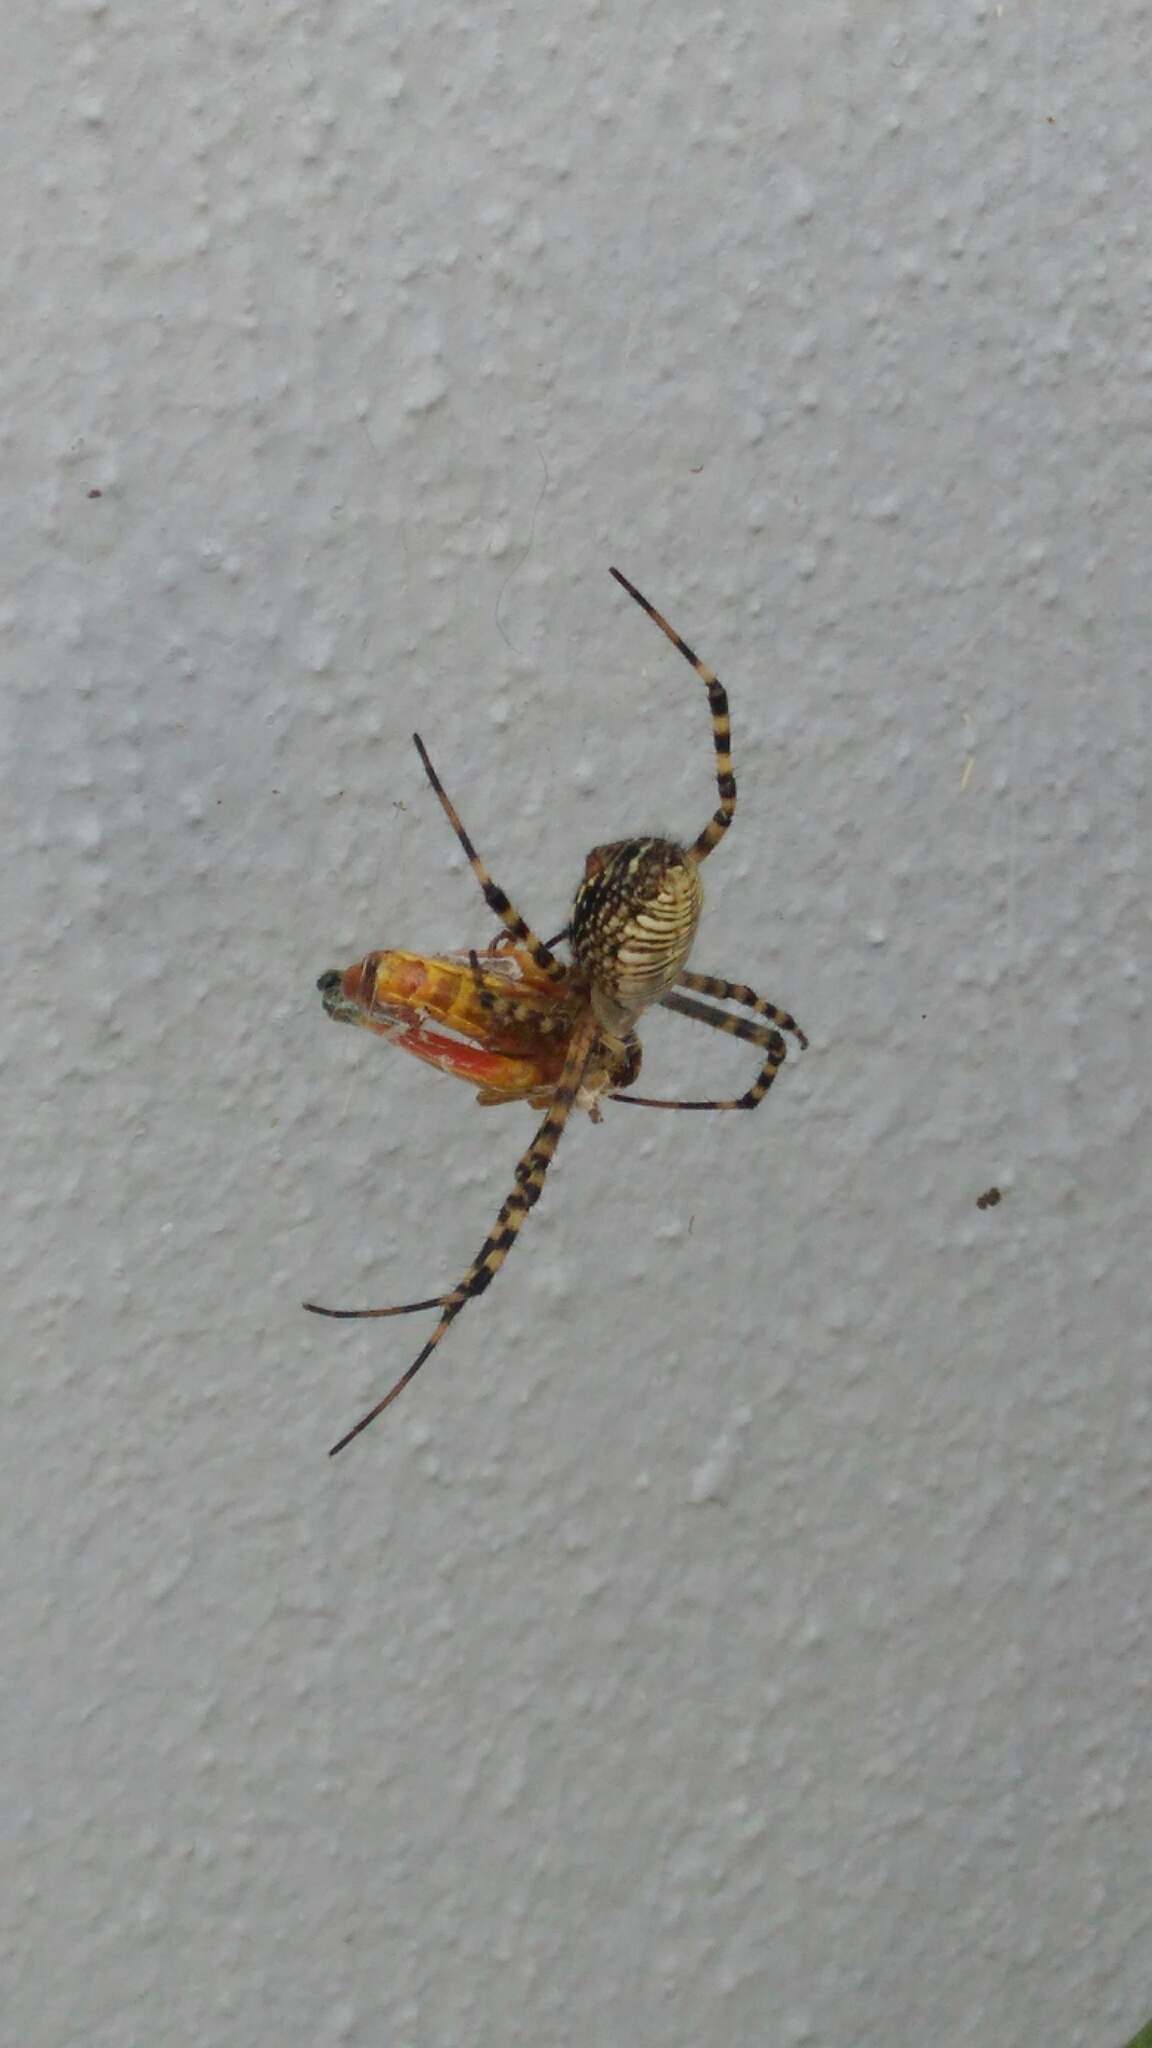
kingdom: Animalia
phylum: Arthropoda
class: Arachnida
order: Araneae
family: Araneidae
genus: Argiope
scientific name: Argiope trifasciata
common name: Banded garden spider
